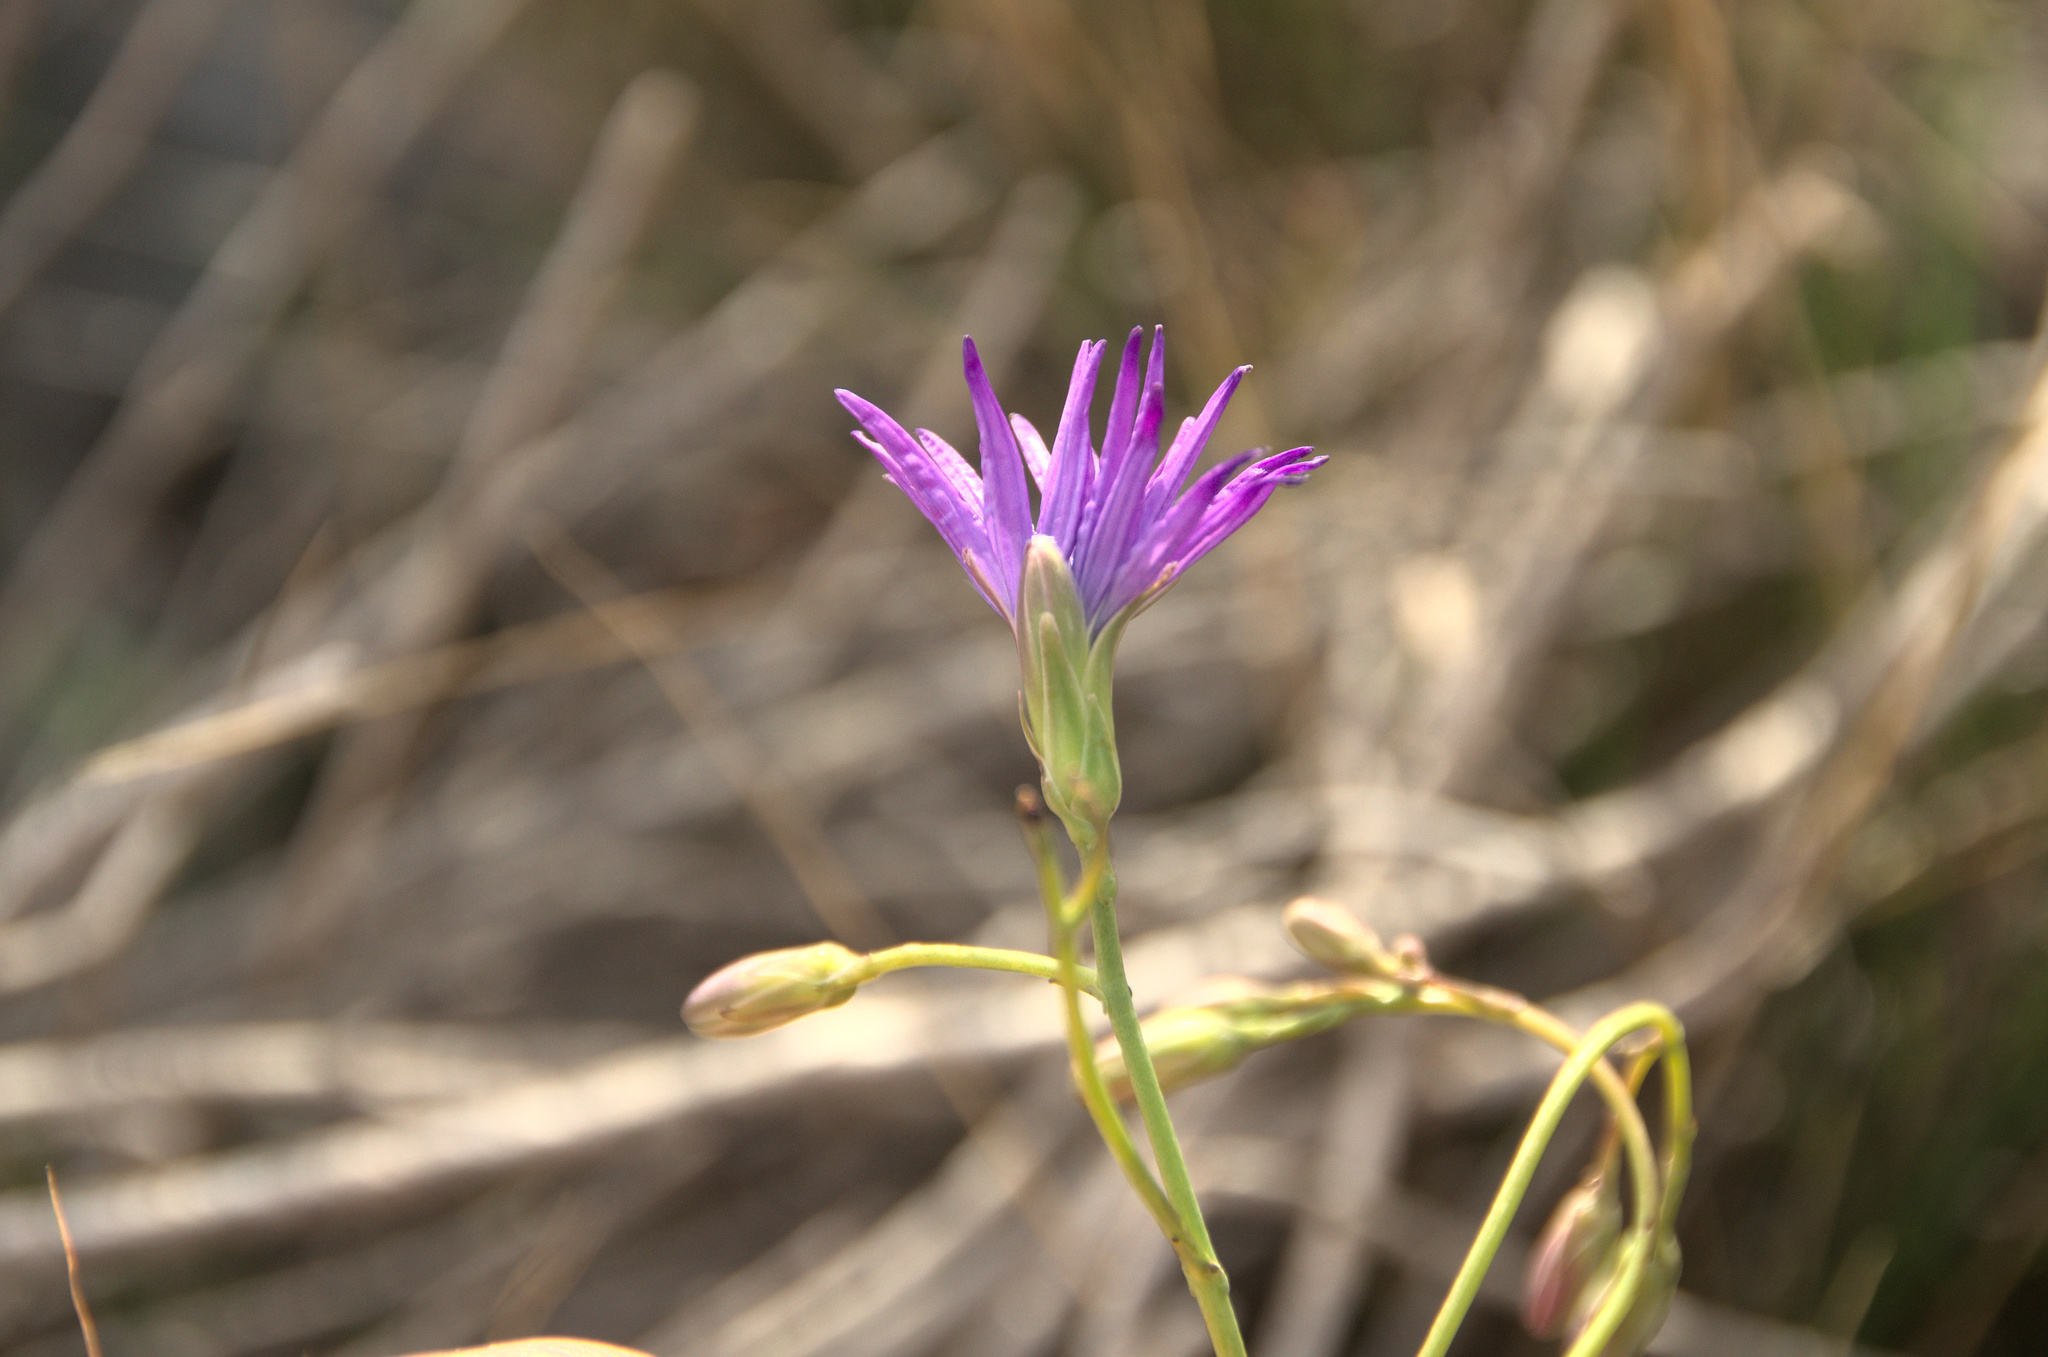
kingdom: Plantae
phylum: Tracheophyta
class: Magnoliopsida
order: Asterales
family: Asteraceae
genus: Lactuca
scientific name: Lactuca perennis
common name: Mountain lettuce
